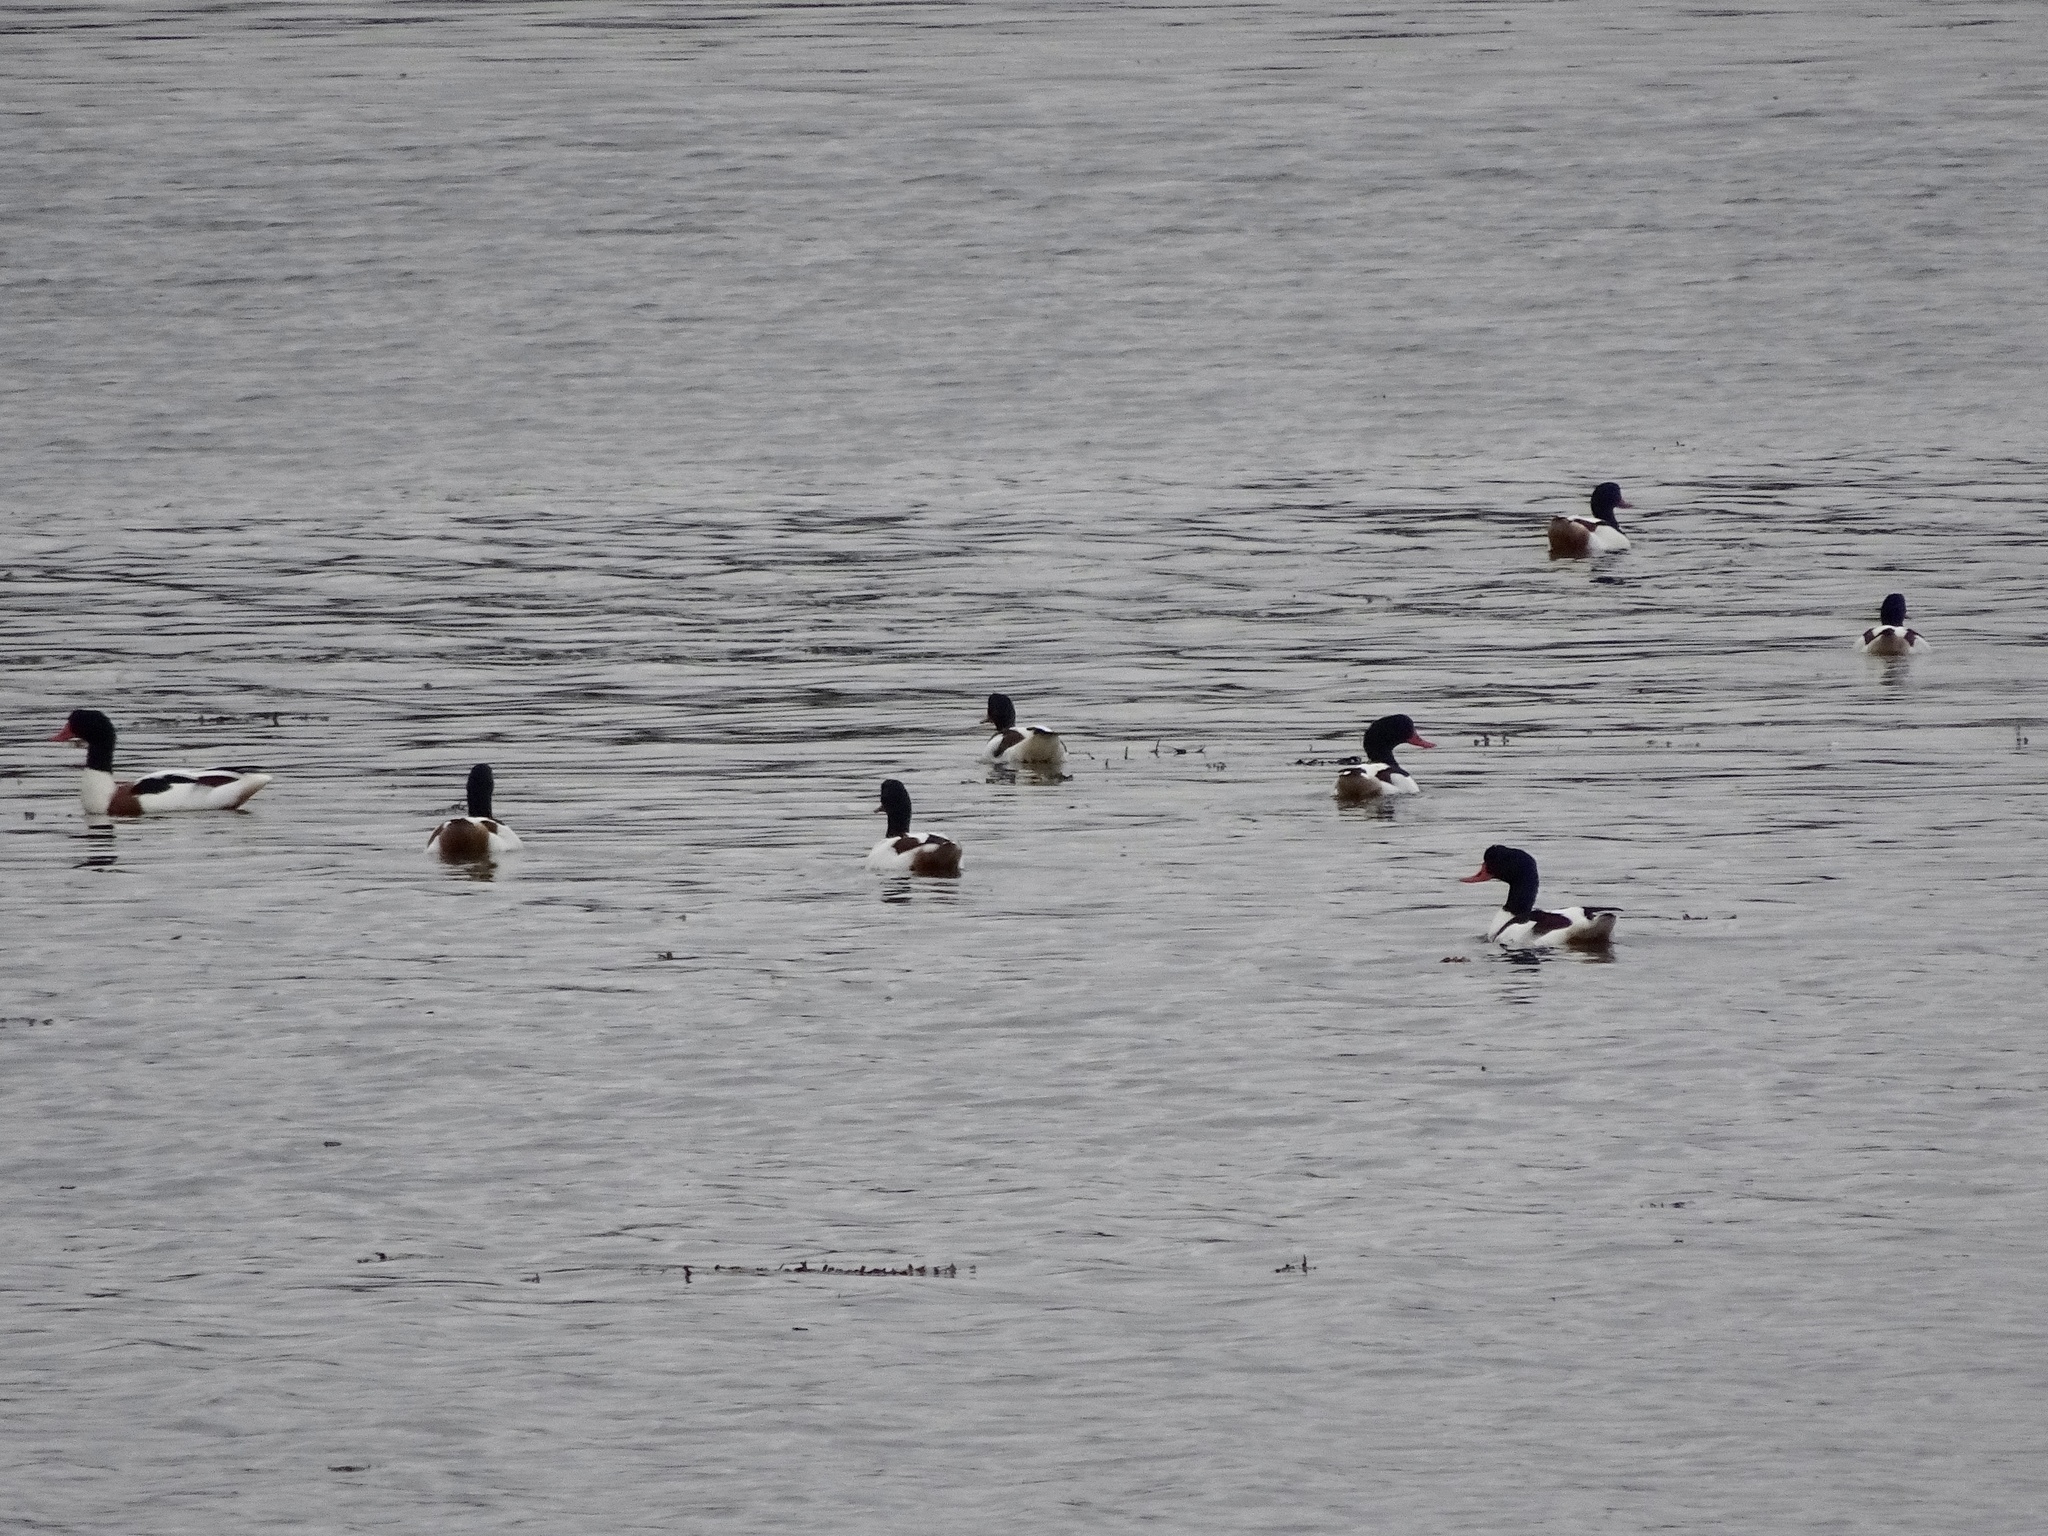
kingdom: Animalia
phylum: Chordata
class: Aves
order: Anseriformes
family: Anatidae
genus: Tadorna
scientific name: Tadorna tadorna
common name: Common shelduck
